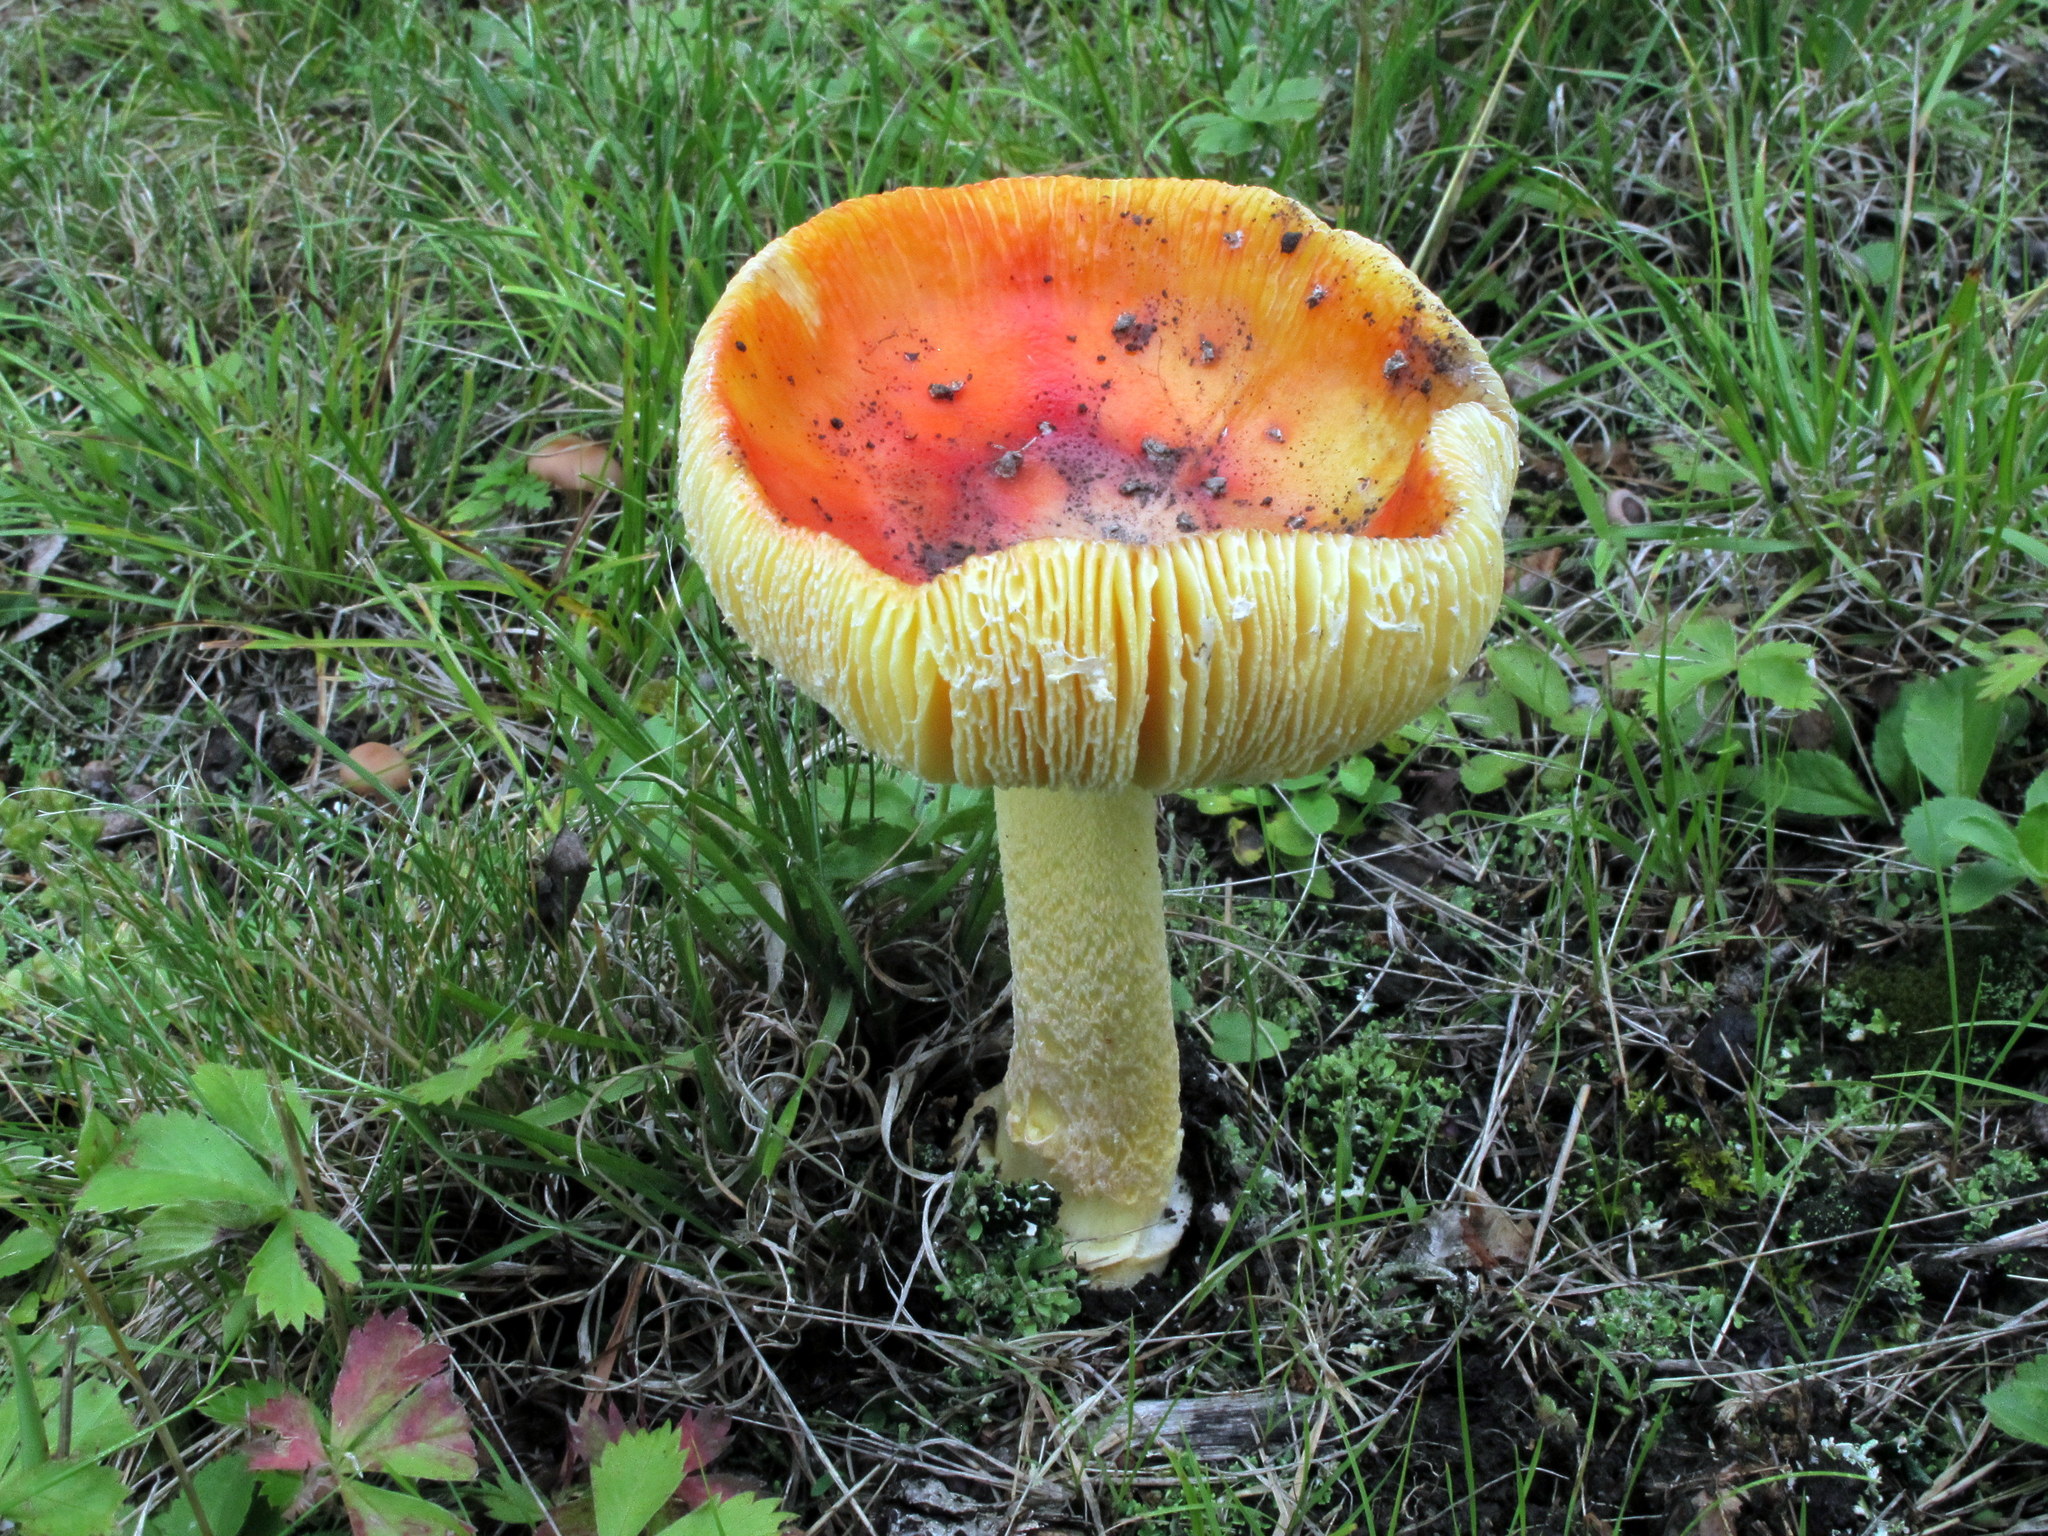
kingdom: Fungi
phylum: Basidiomycota
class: Agaricomycetes
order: Agaricales
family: Amanitaceae
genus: Amanita
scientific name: Amanita parcivolvata
